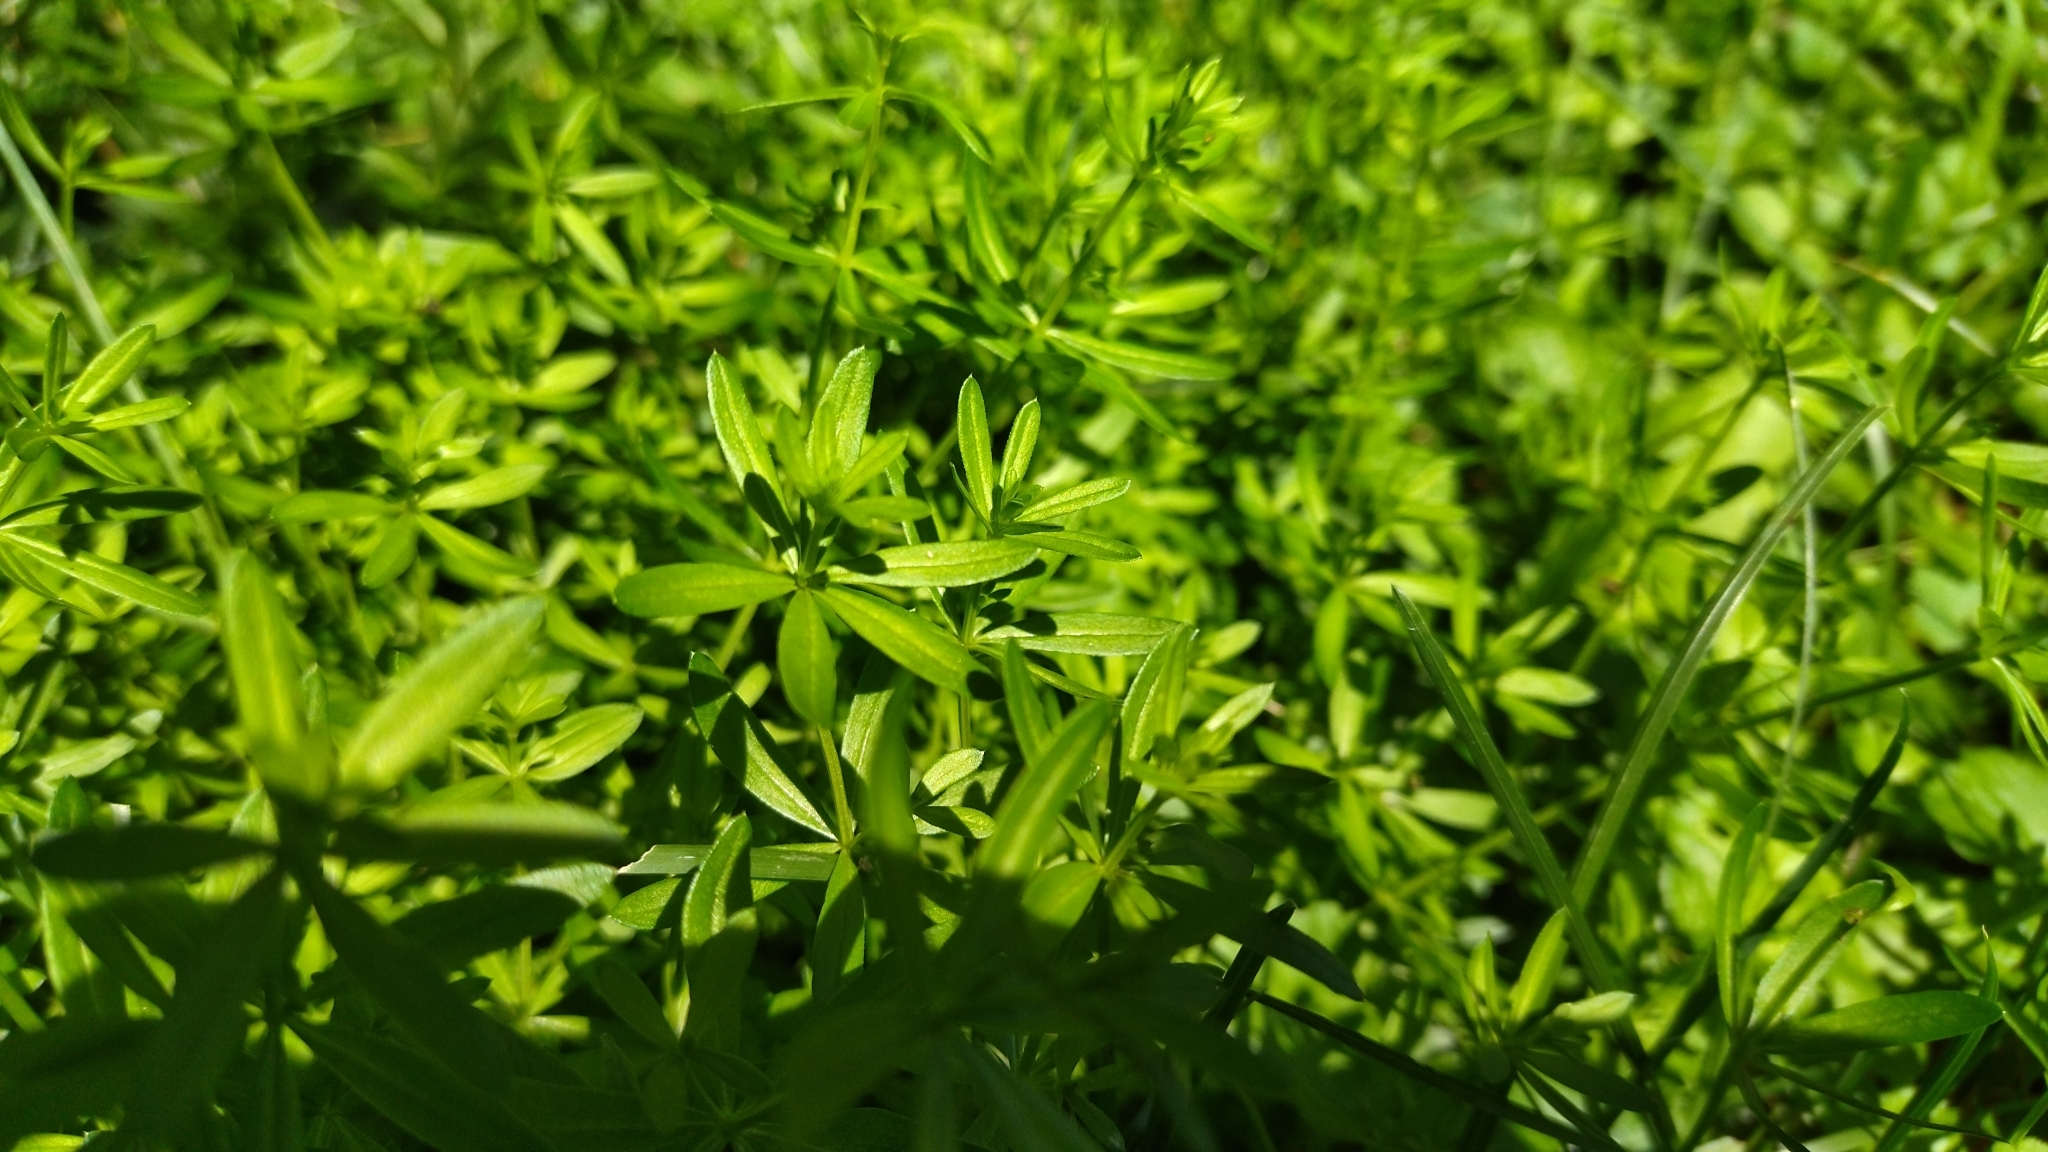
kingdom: Plantae
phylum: Tracheophyta
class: Magnoliopsida
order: Gentianales
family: Rubiaceae
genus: Galium
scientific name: Galium mollugo
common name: Hedge bedstraw
